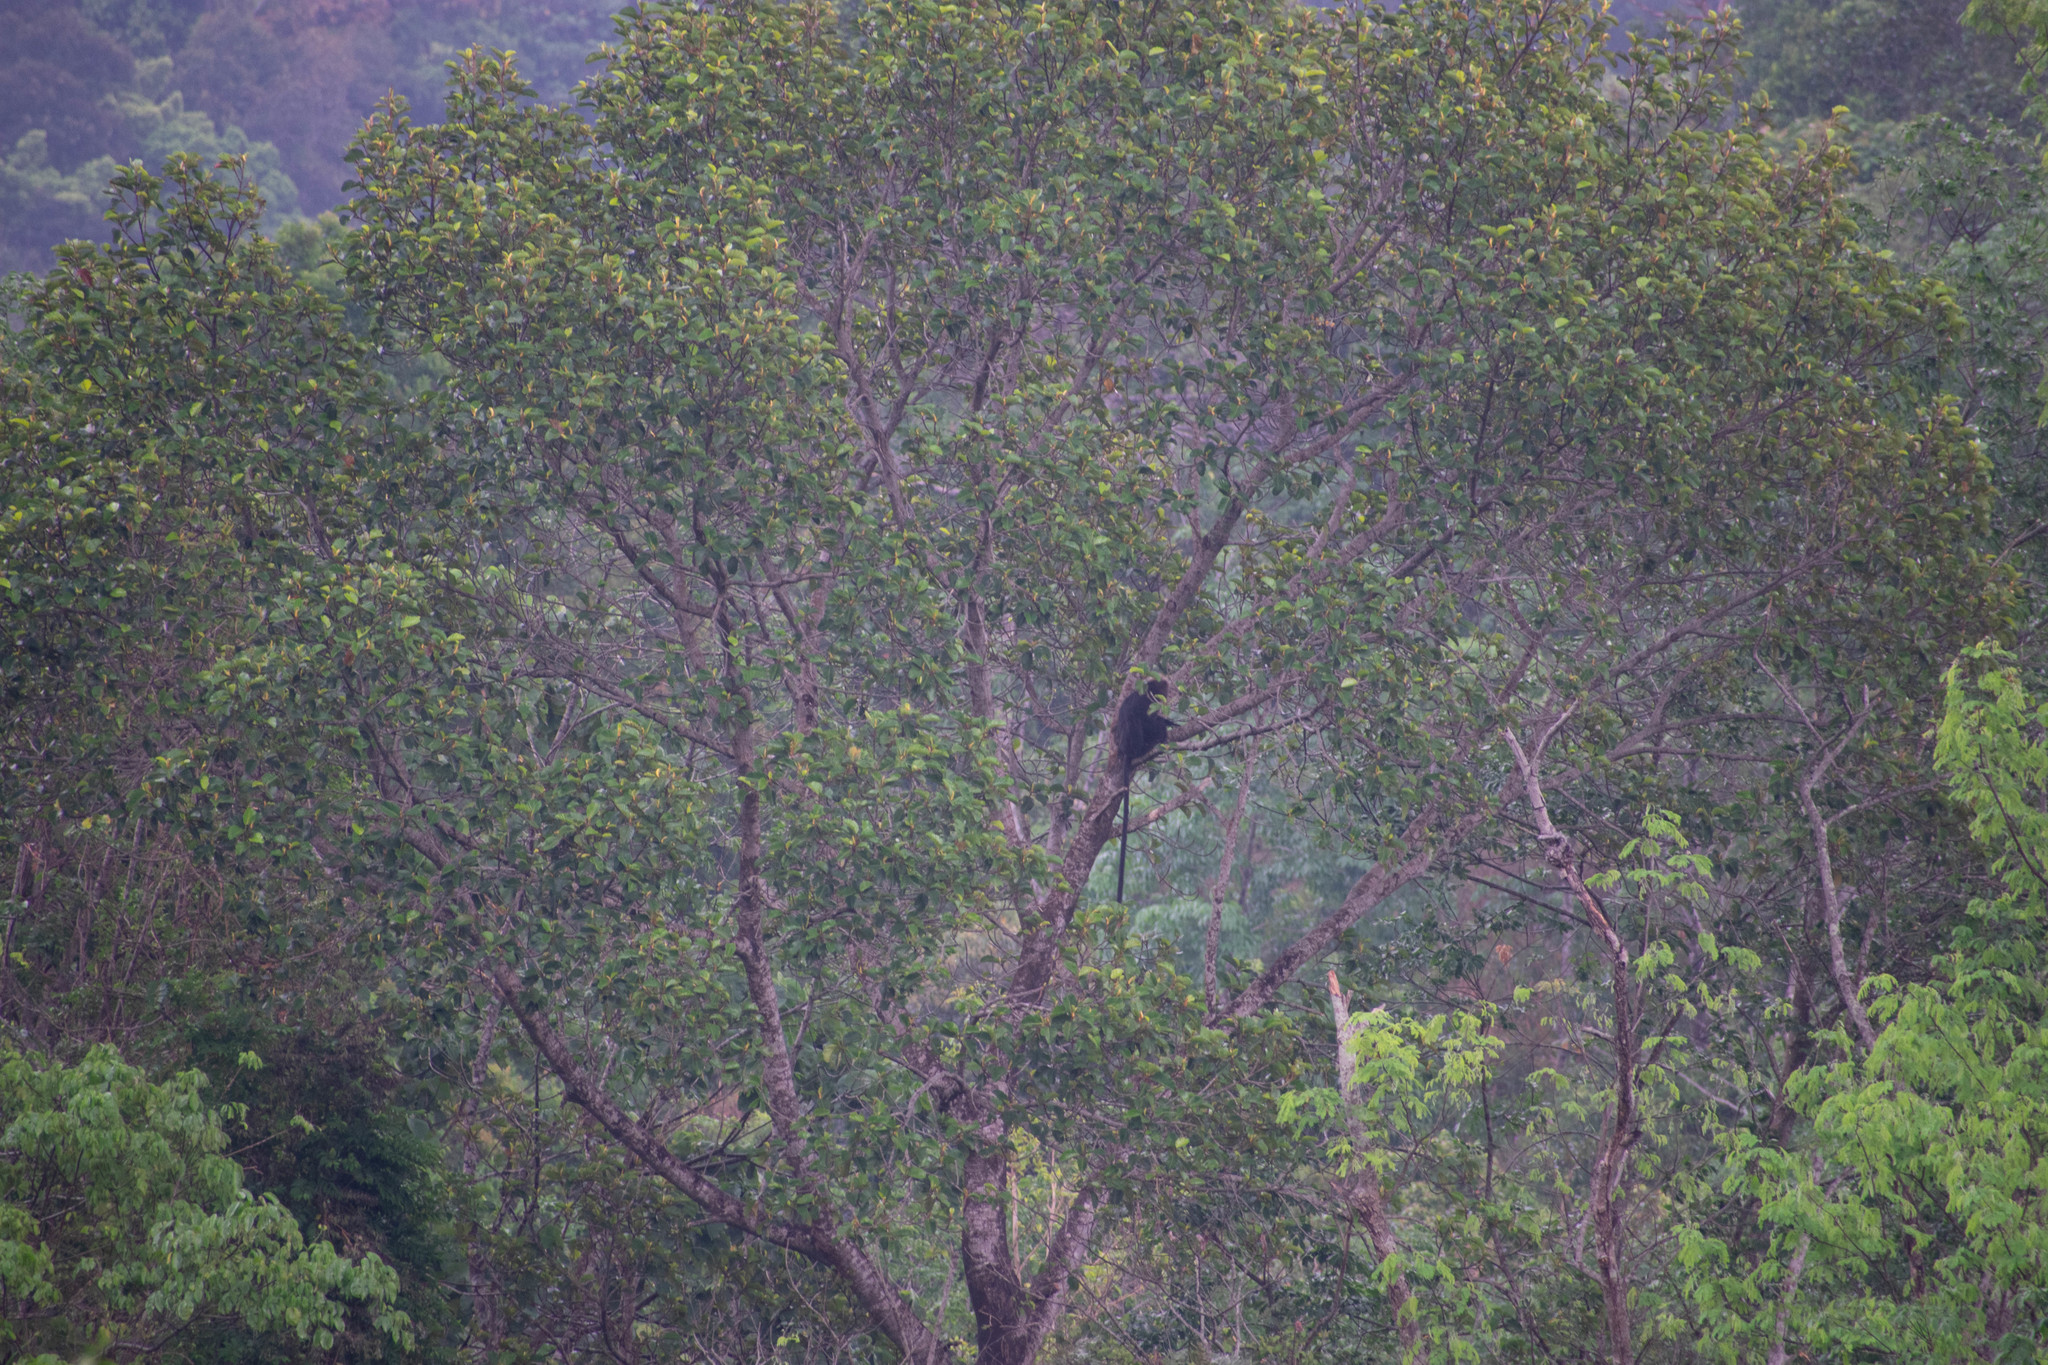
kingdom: Animalia
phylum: Chordata
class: Mammalia
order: Primates
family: Cercopithecidae
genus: Semnopithecus
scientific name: Semnopithecus johnii
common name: Nilgiri langur
